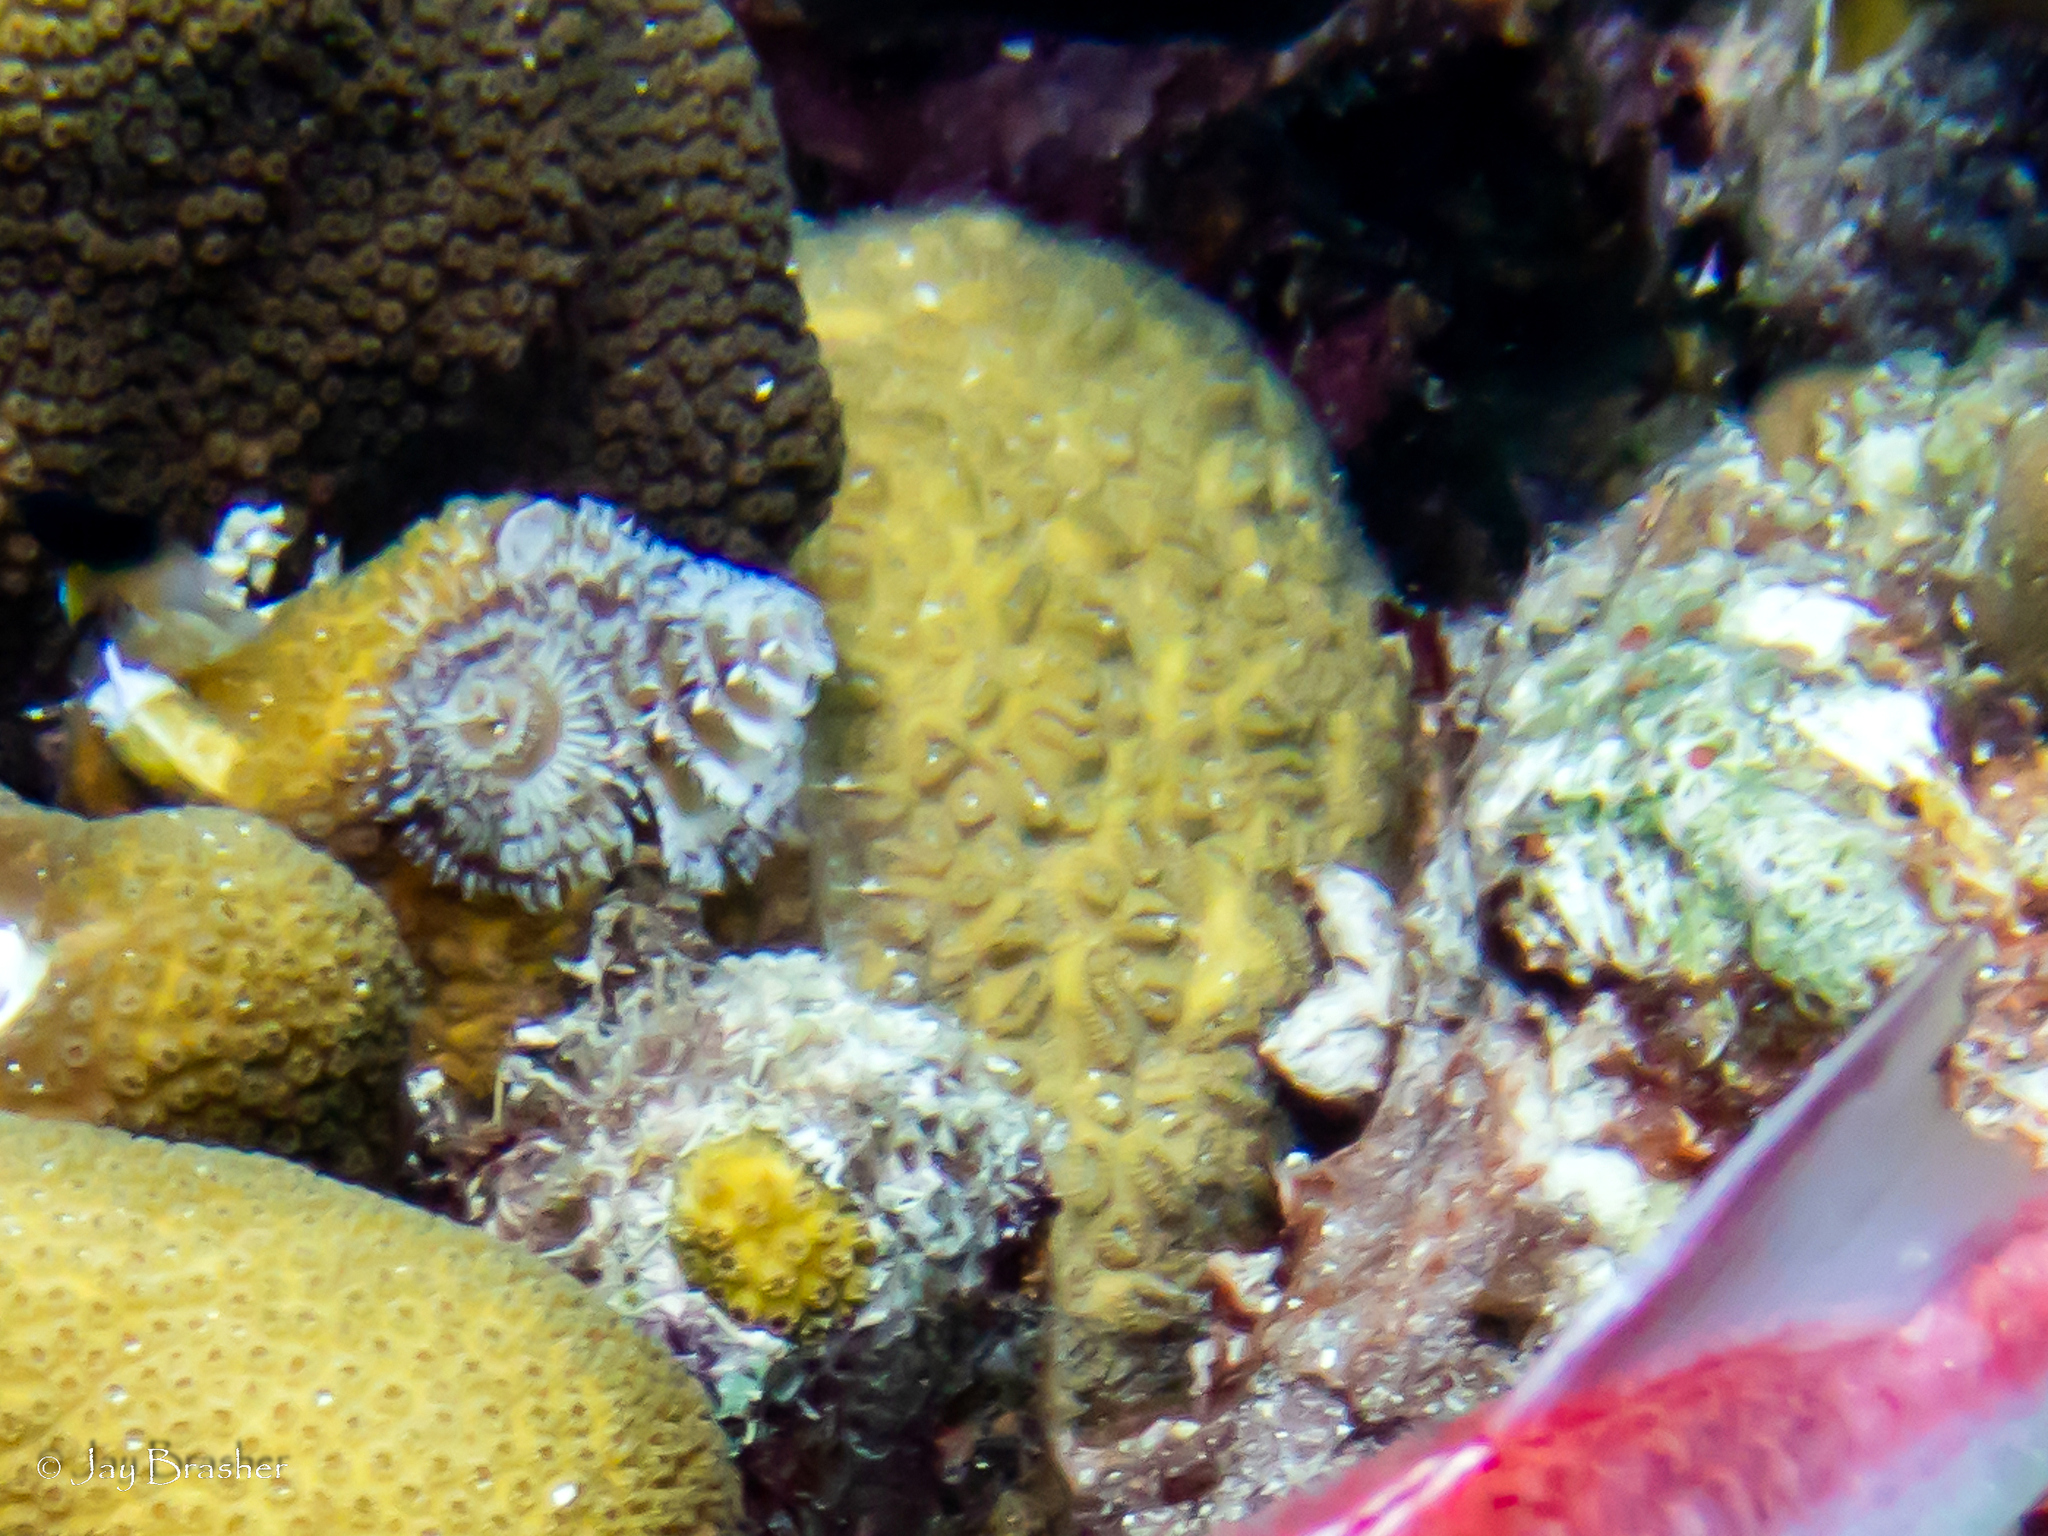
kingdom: Animalia
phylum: Cnidaria
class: Anthozoa
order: Scleractinia
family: Meandrinidae
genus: Dichocoenia
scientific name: Dichocoenia stokesii
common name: Pineapple coral
